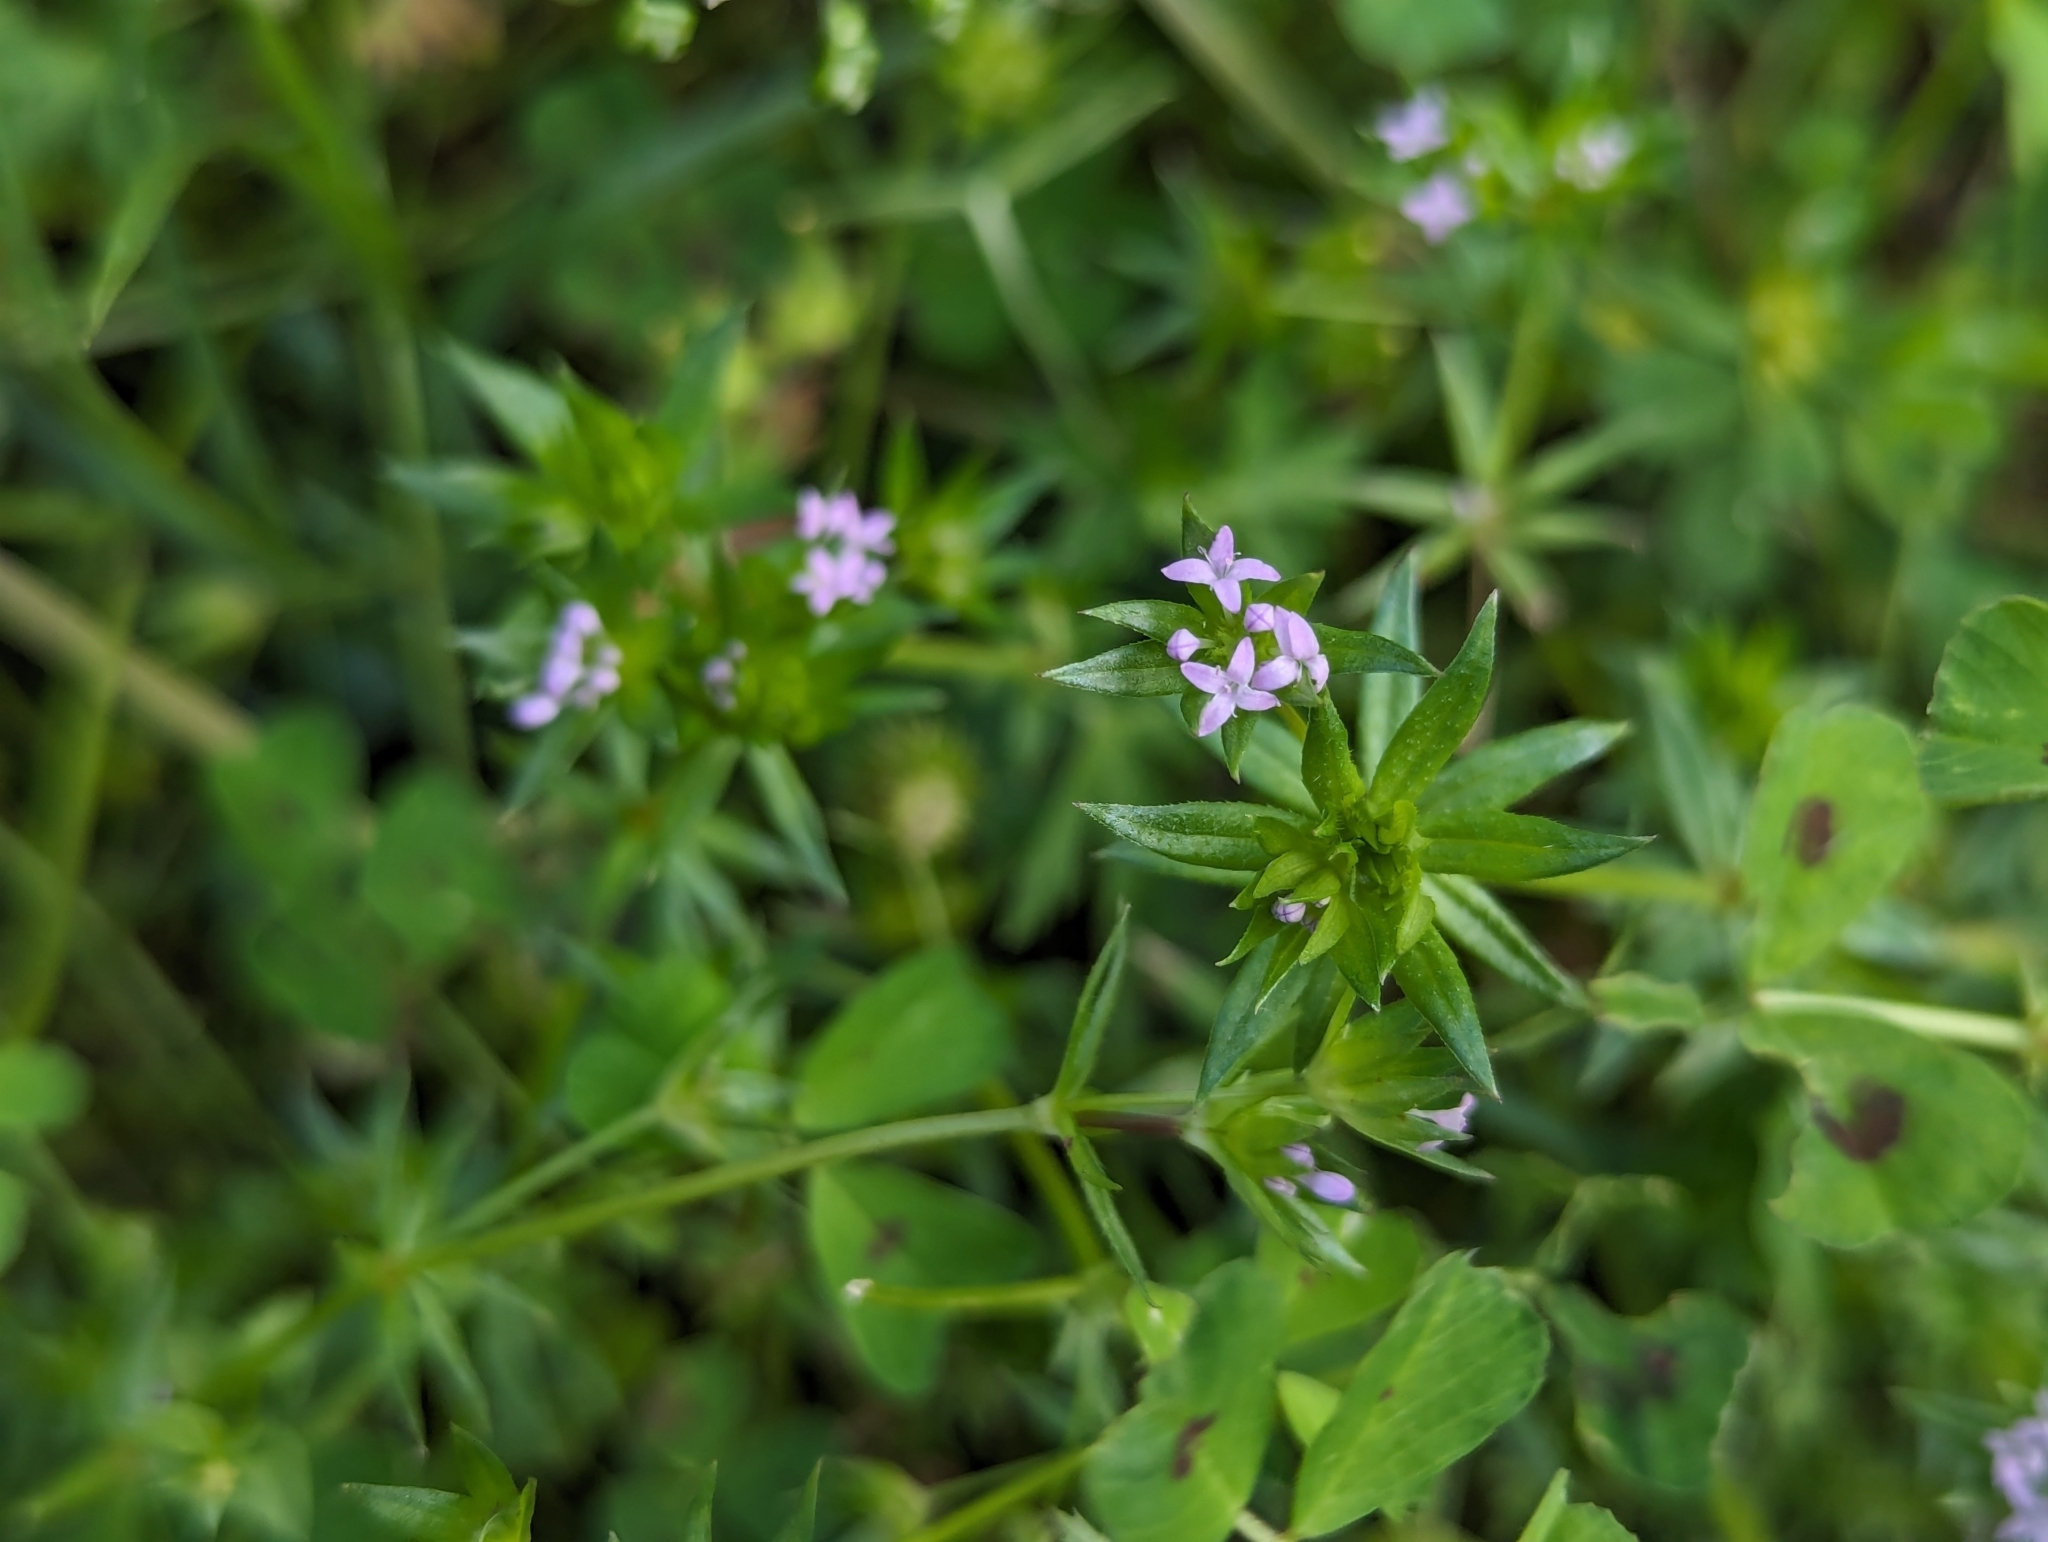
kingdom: Plantae
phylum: Tracheophyta
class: Magnoliopsida
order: Gentianales
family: Rubiaceae
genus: Sherardia
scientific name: Sherardia arvensis
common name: Field madder
